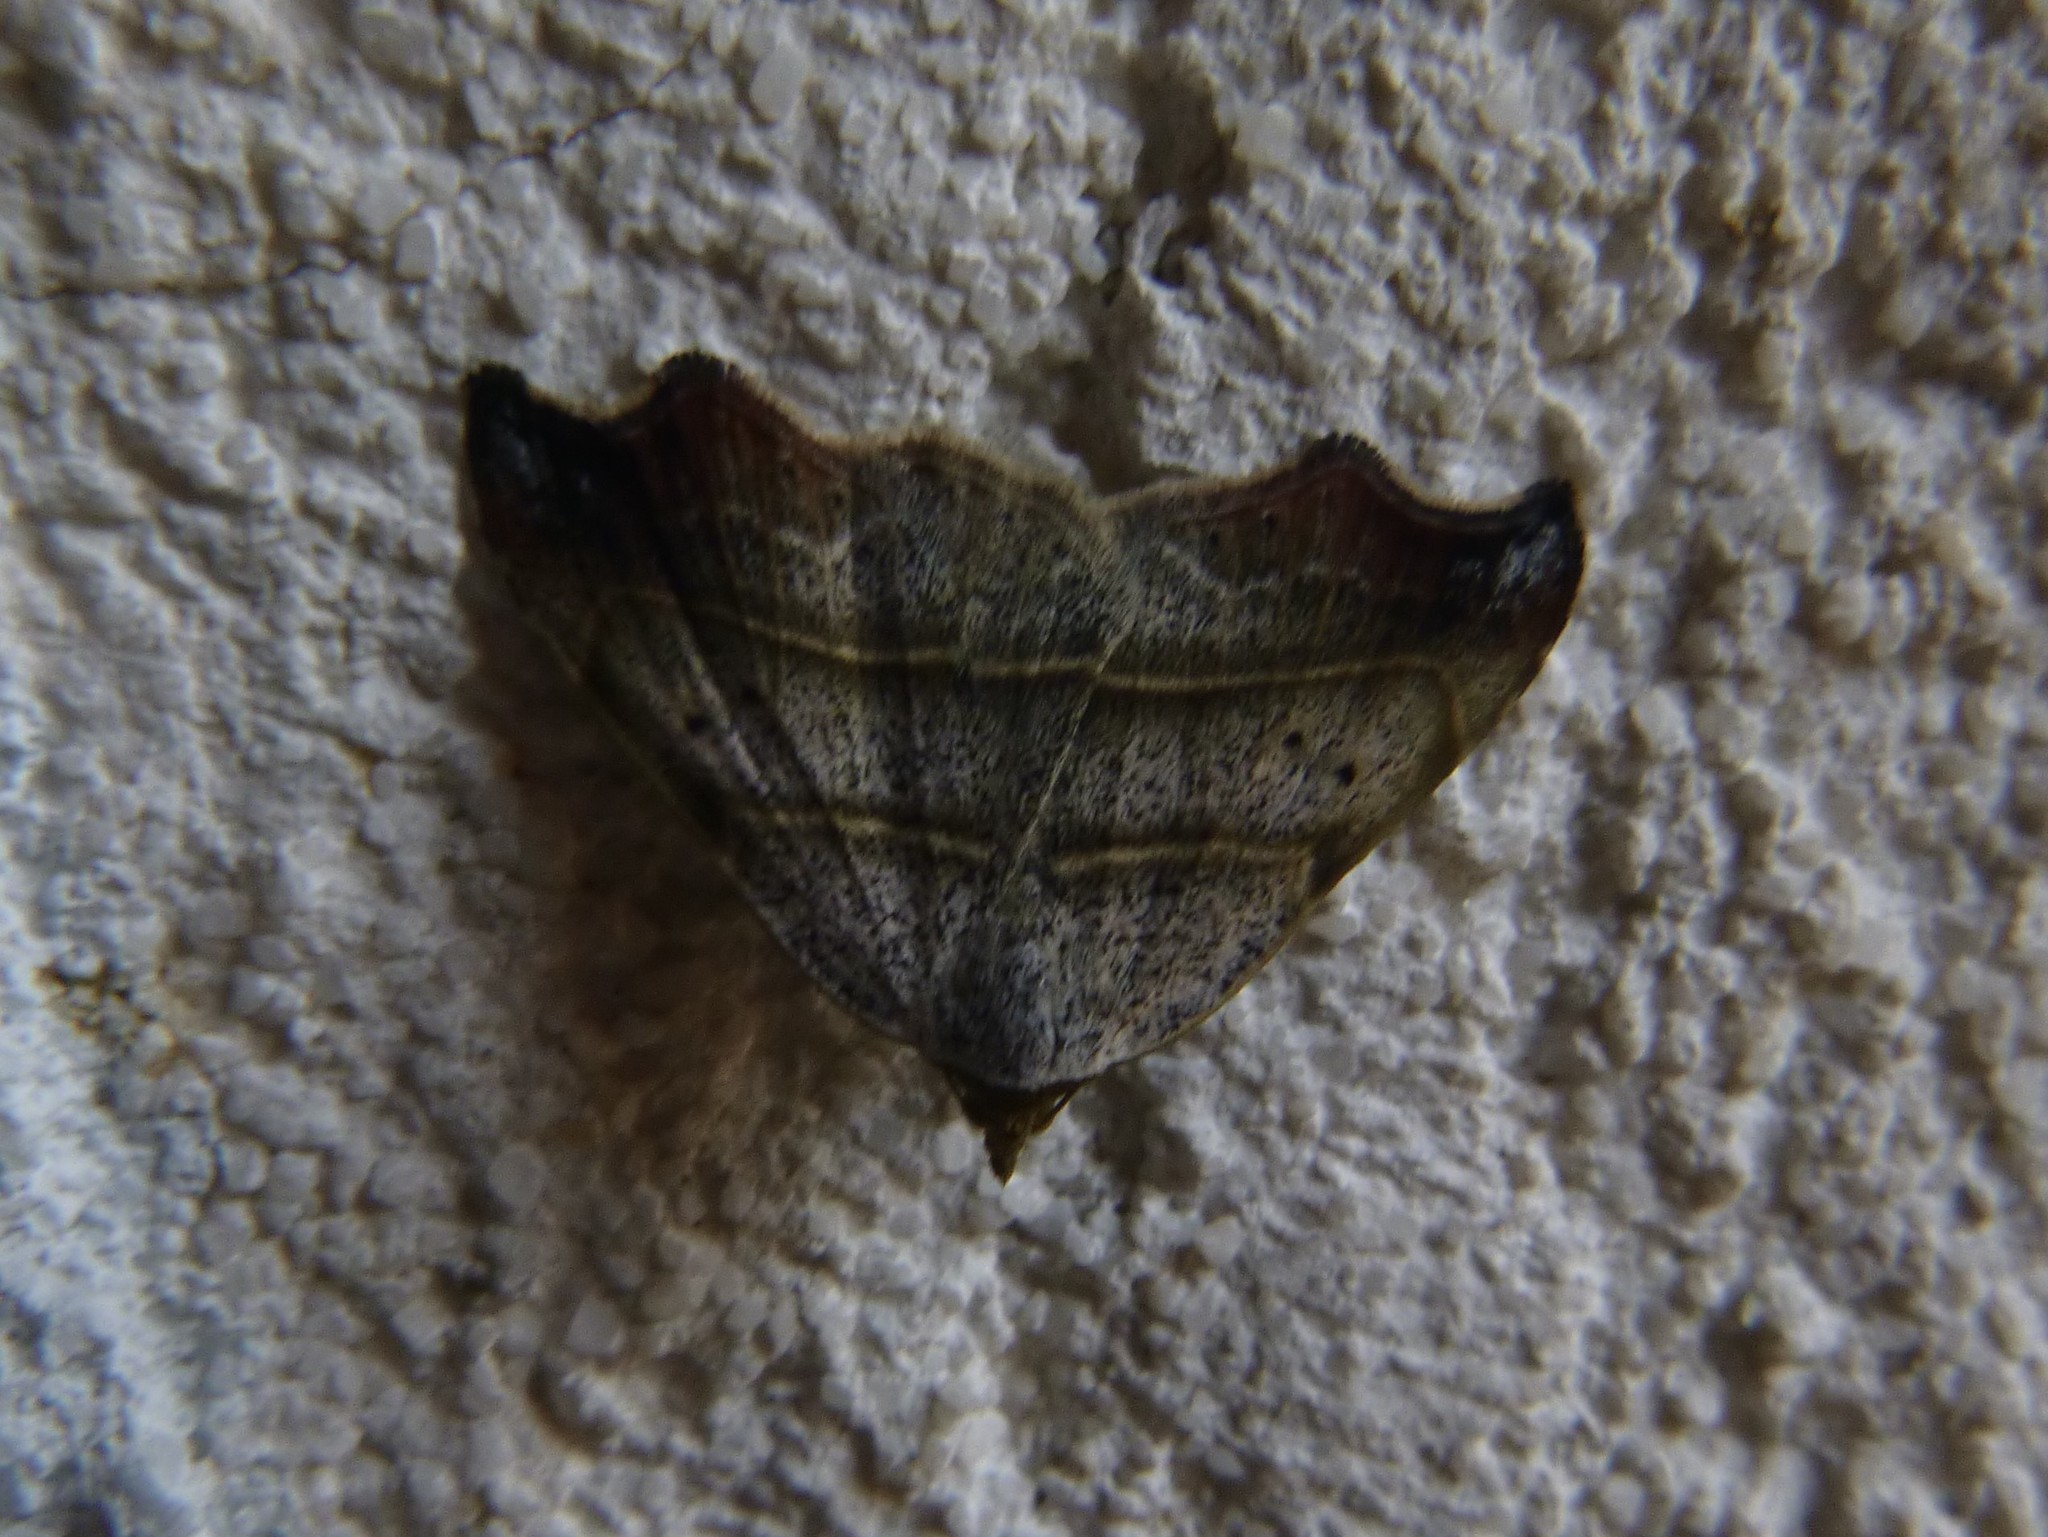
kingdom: Animalia
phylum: Arthropoda
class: Insecta
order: Lepidoptera
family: Erebidae
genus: Laspeyria
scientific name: Laspeyria flexula
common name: Beautiful hook-tip
